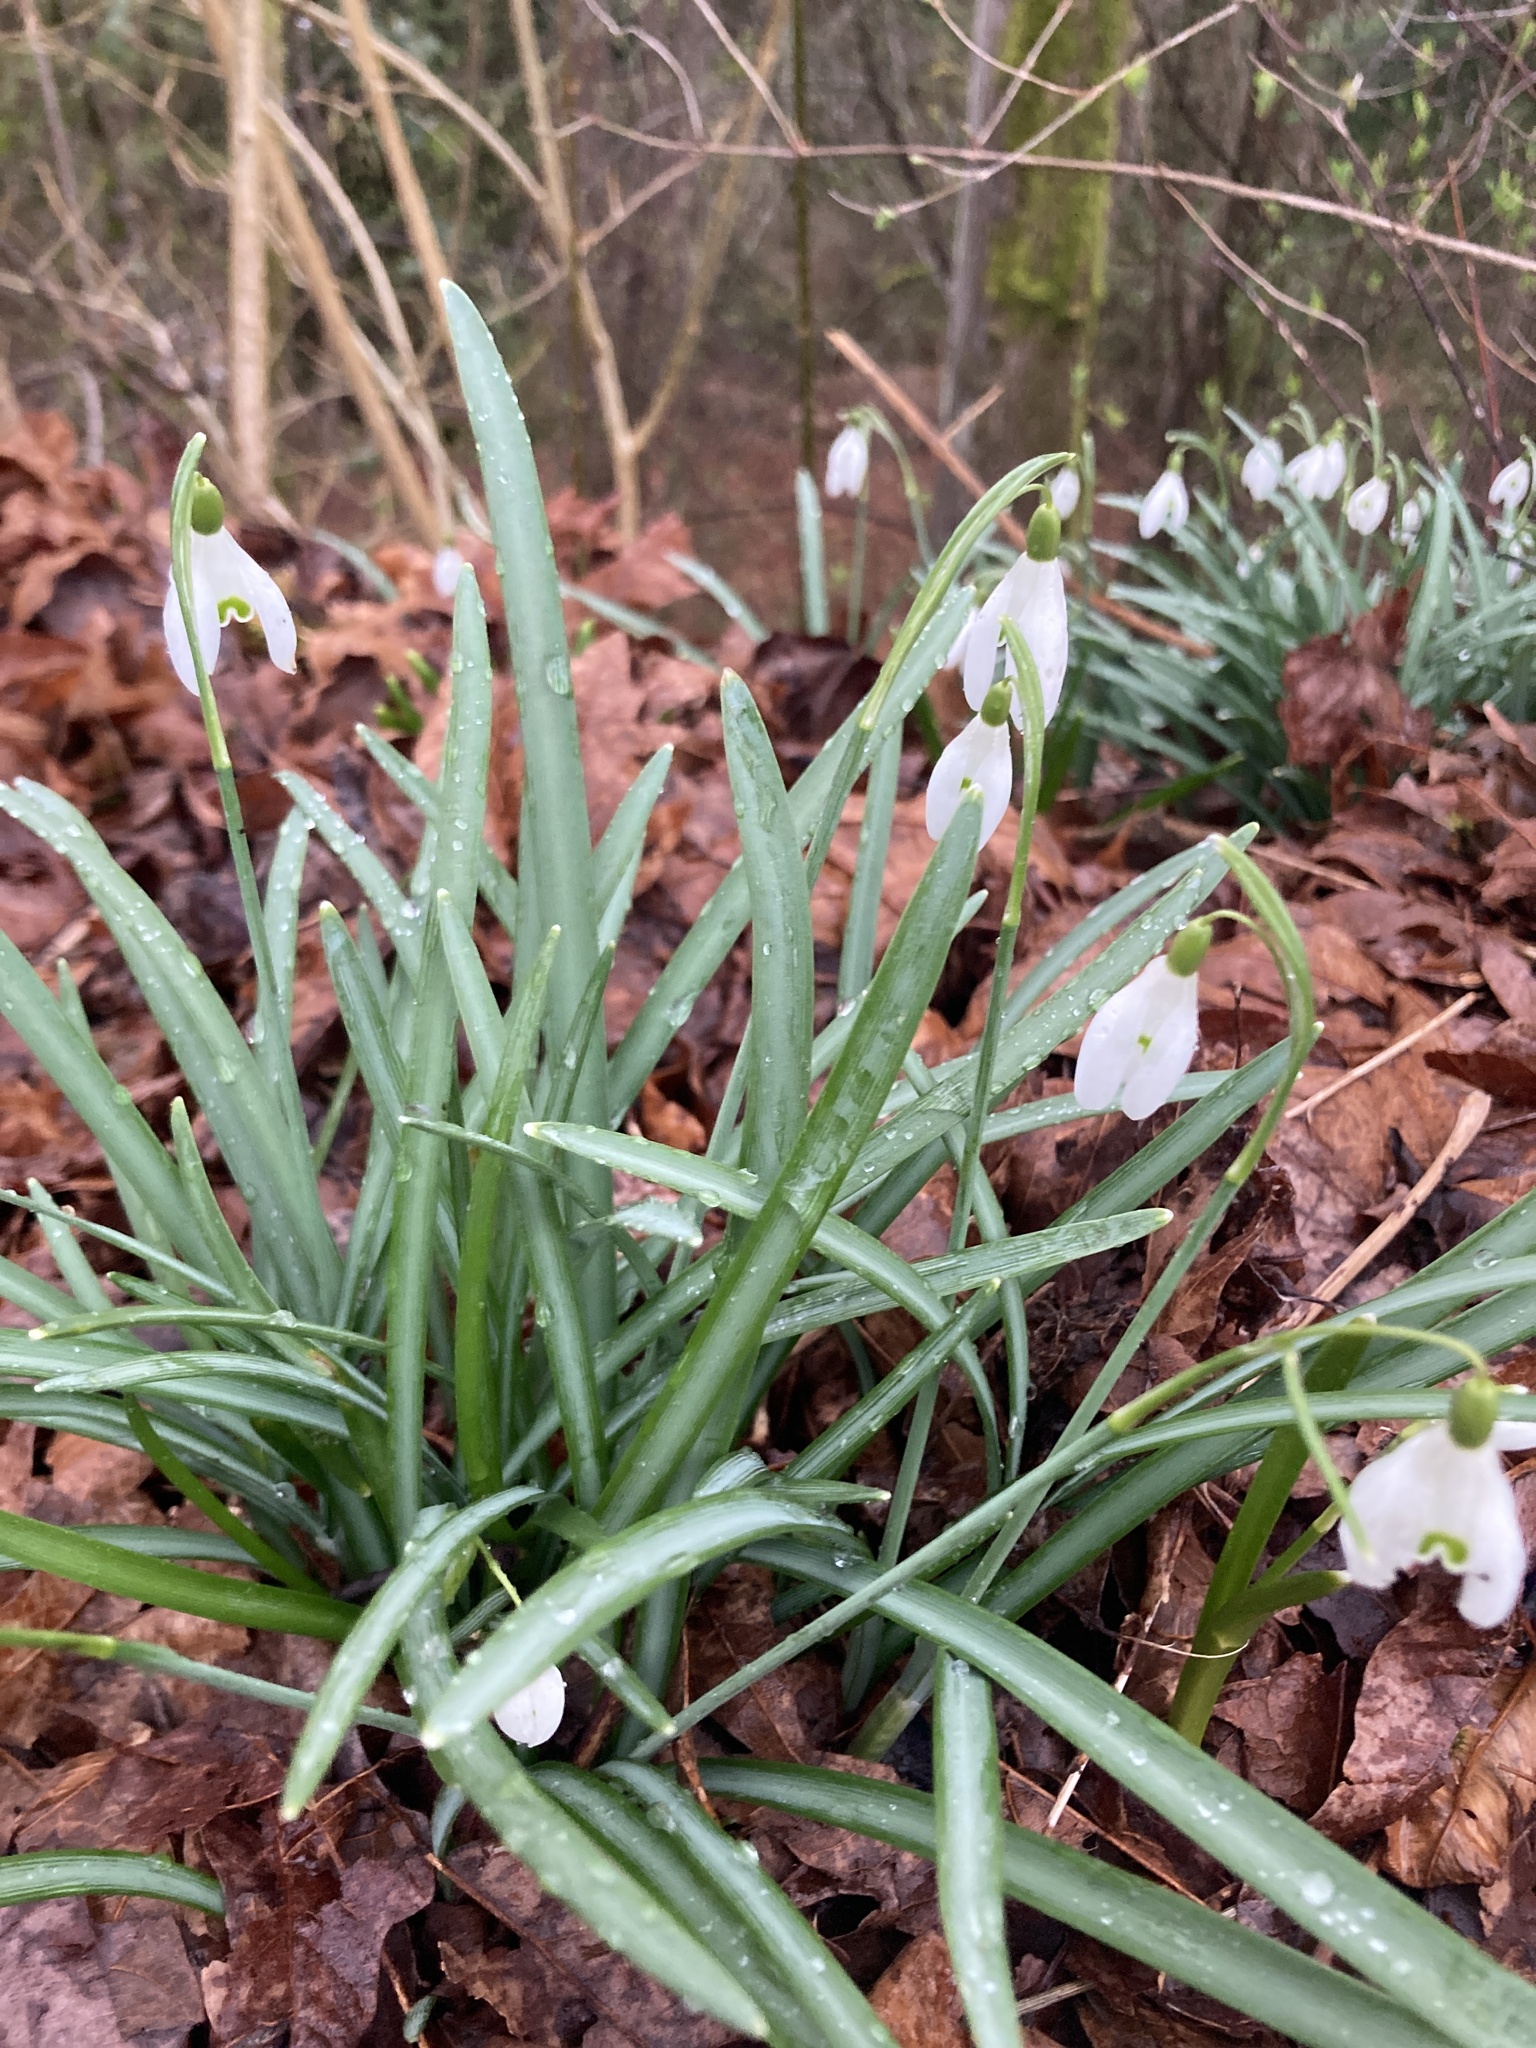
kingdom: Plantae
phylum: Tracheophyta
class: Liliopsida
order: Asparagales
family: Amaryllidaceae
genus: Galanthus
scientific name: Galanthus nivalis
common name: Snowdrop
